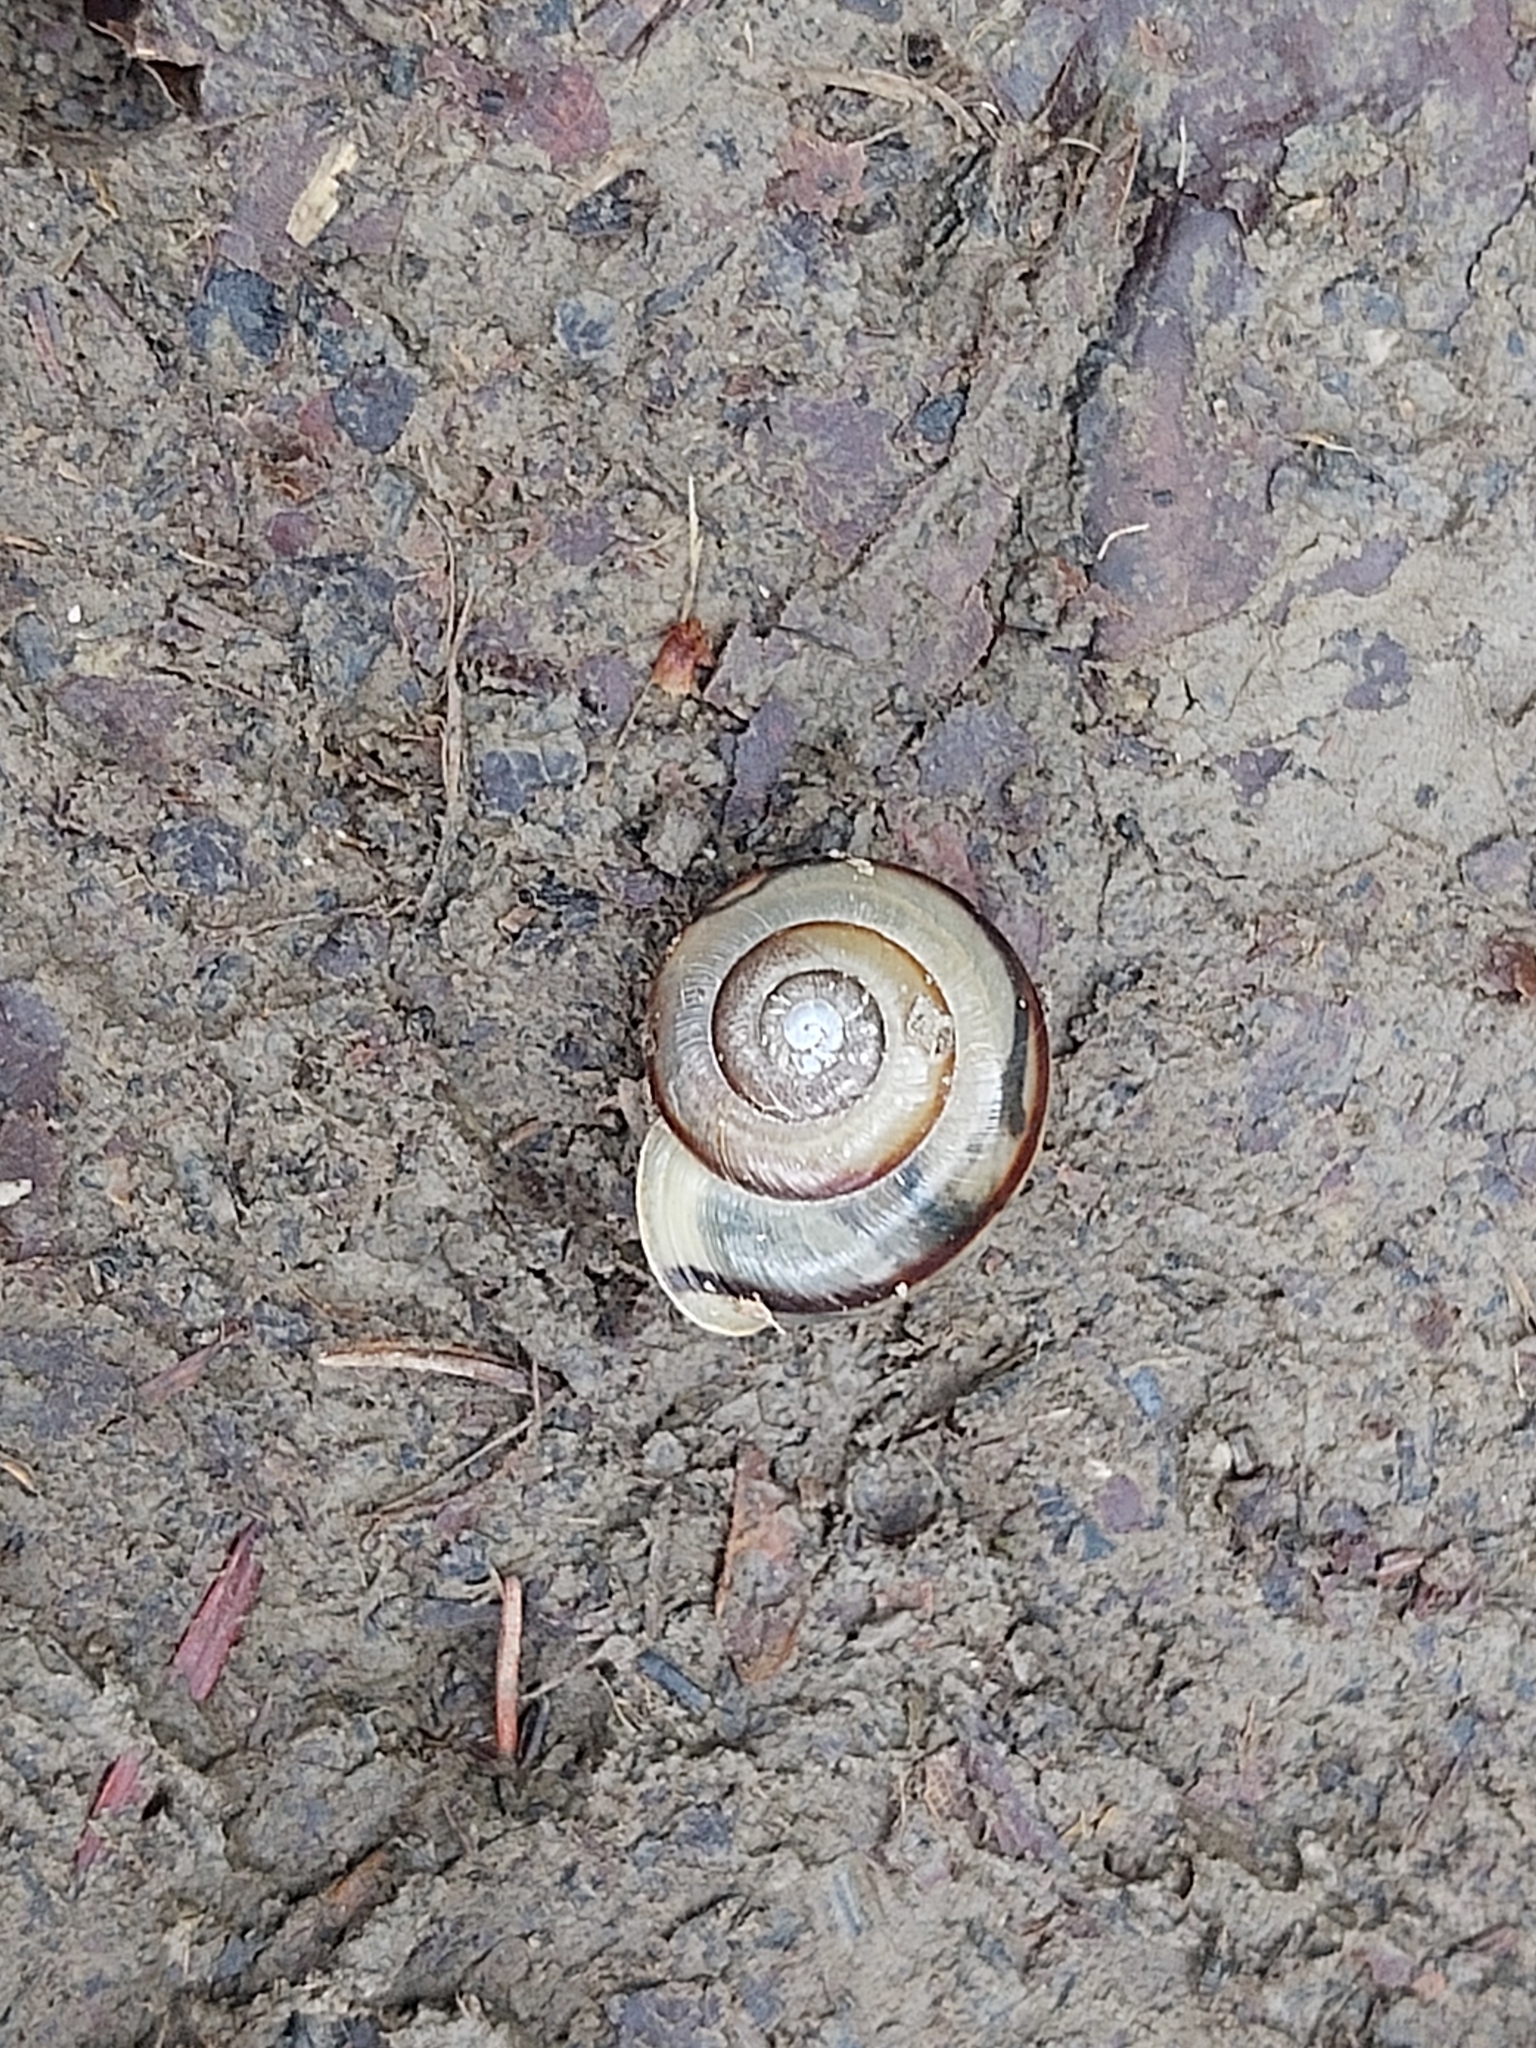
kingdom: Animalia
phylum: Mollusca
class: Gastropoda
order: Stylommatophora
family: Helicidae
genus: Faustina
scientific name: Faustina faustina
